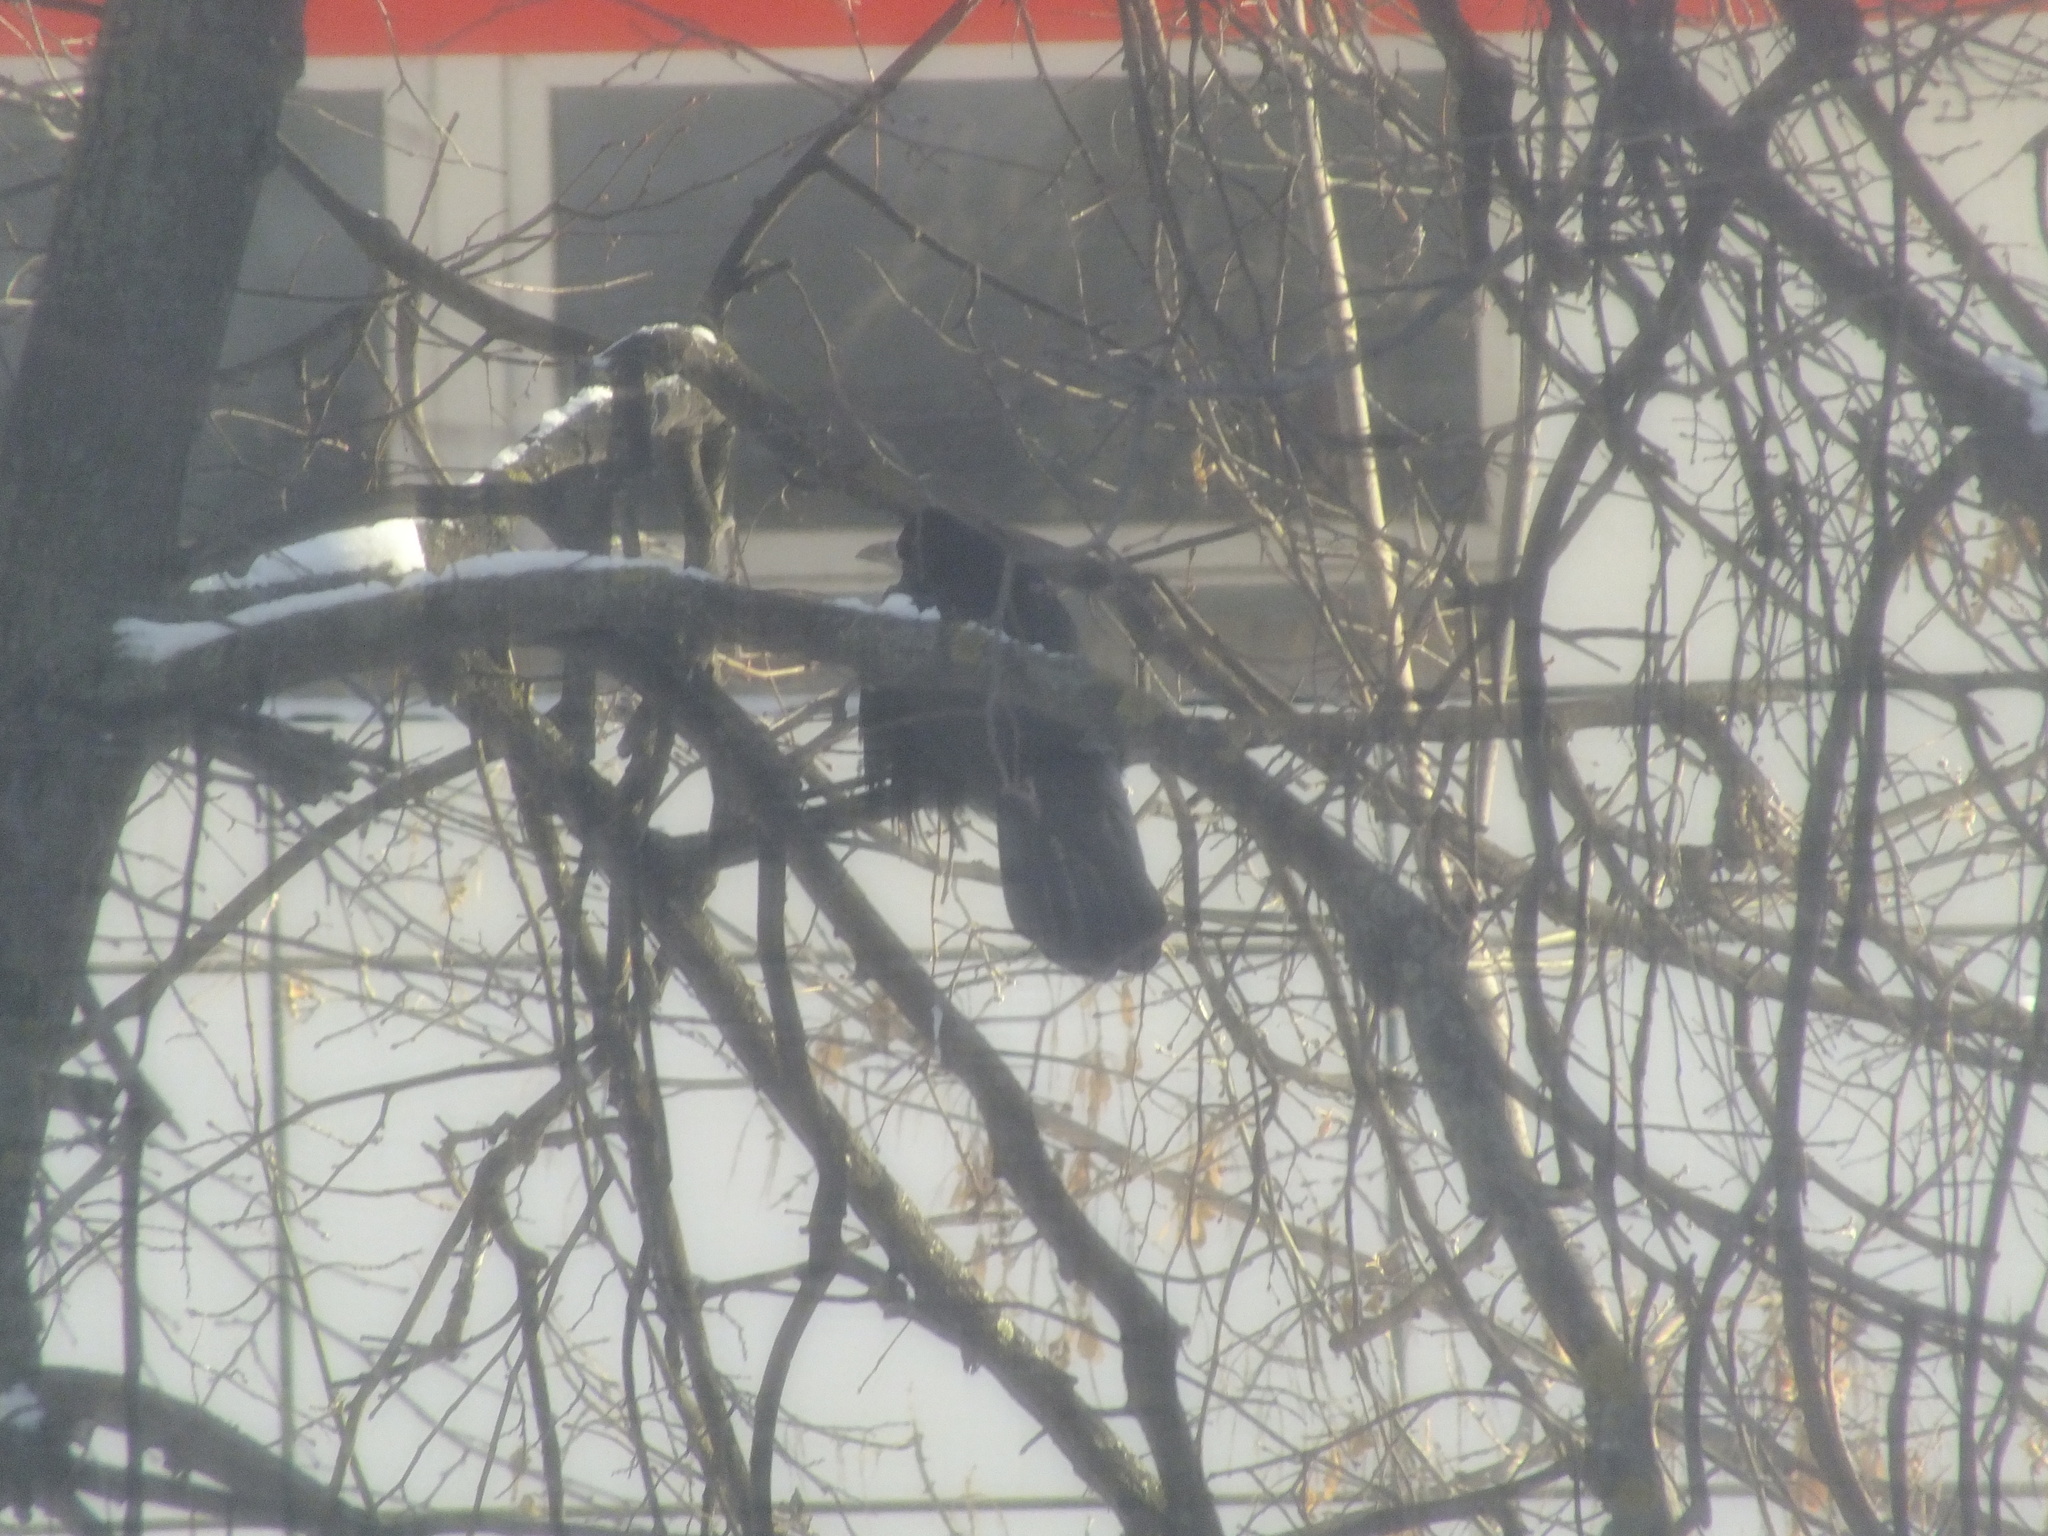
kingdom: Animalia
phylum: Chordata
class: Aves
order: Passeriformes
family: Corvidae
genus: Corvus
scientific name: Corvus frugilegus
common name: Rook
